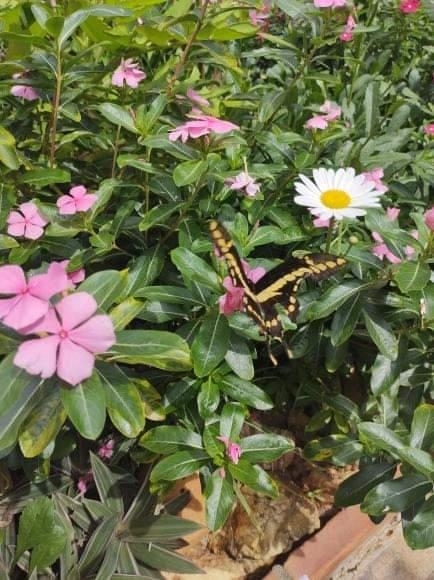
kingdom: Animalia
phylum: Arthropoda
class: Insecta
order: Lepidoptera
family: Papilionidae
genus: Papilio
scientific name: Papilio thoas
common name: King swallowtail
